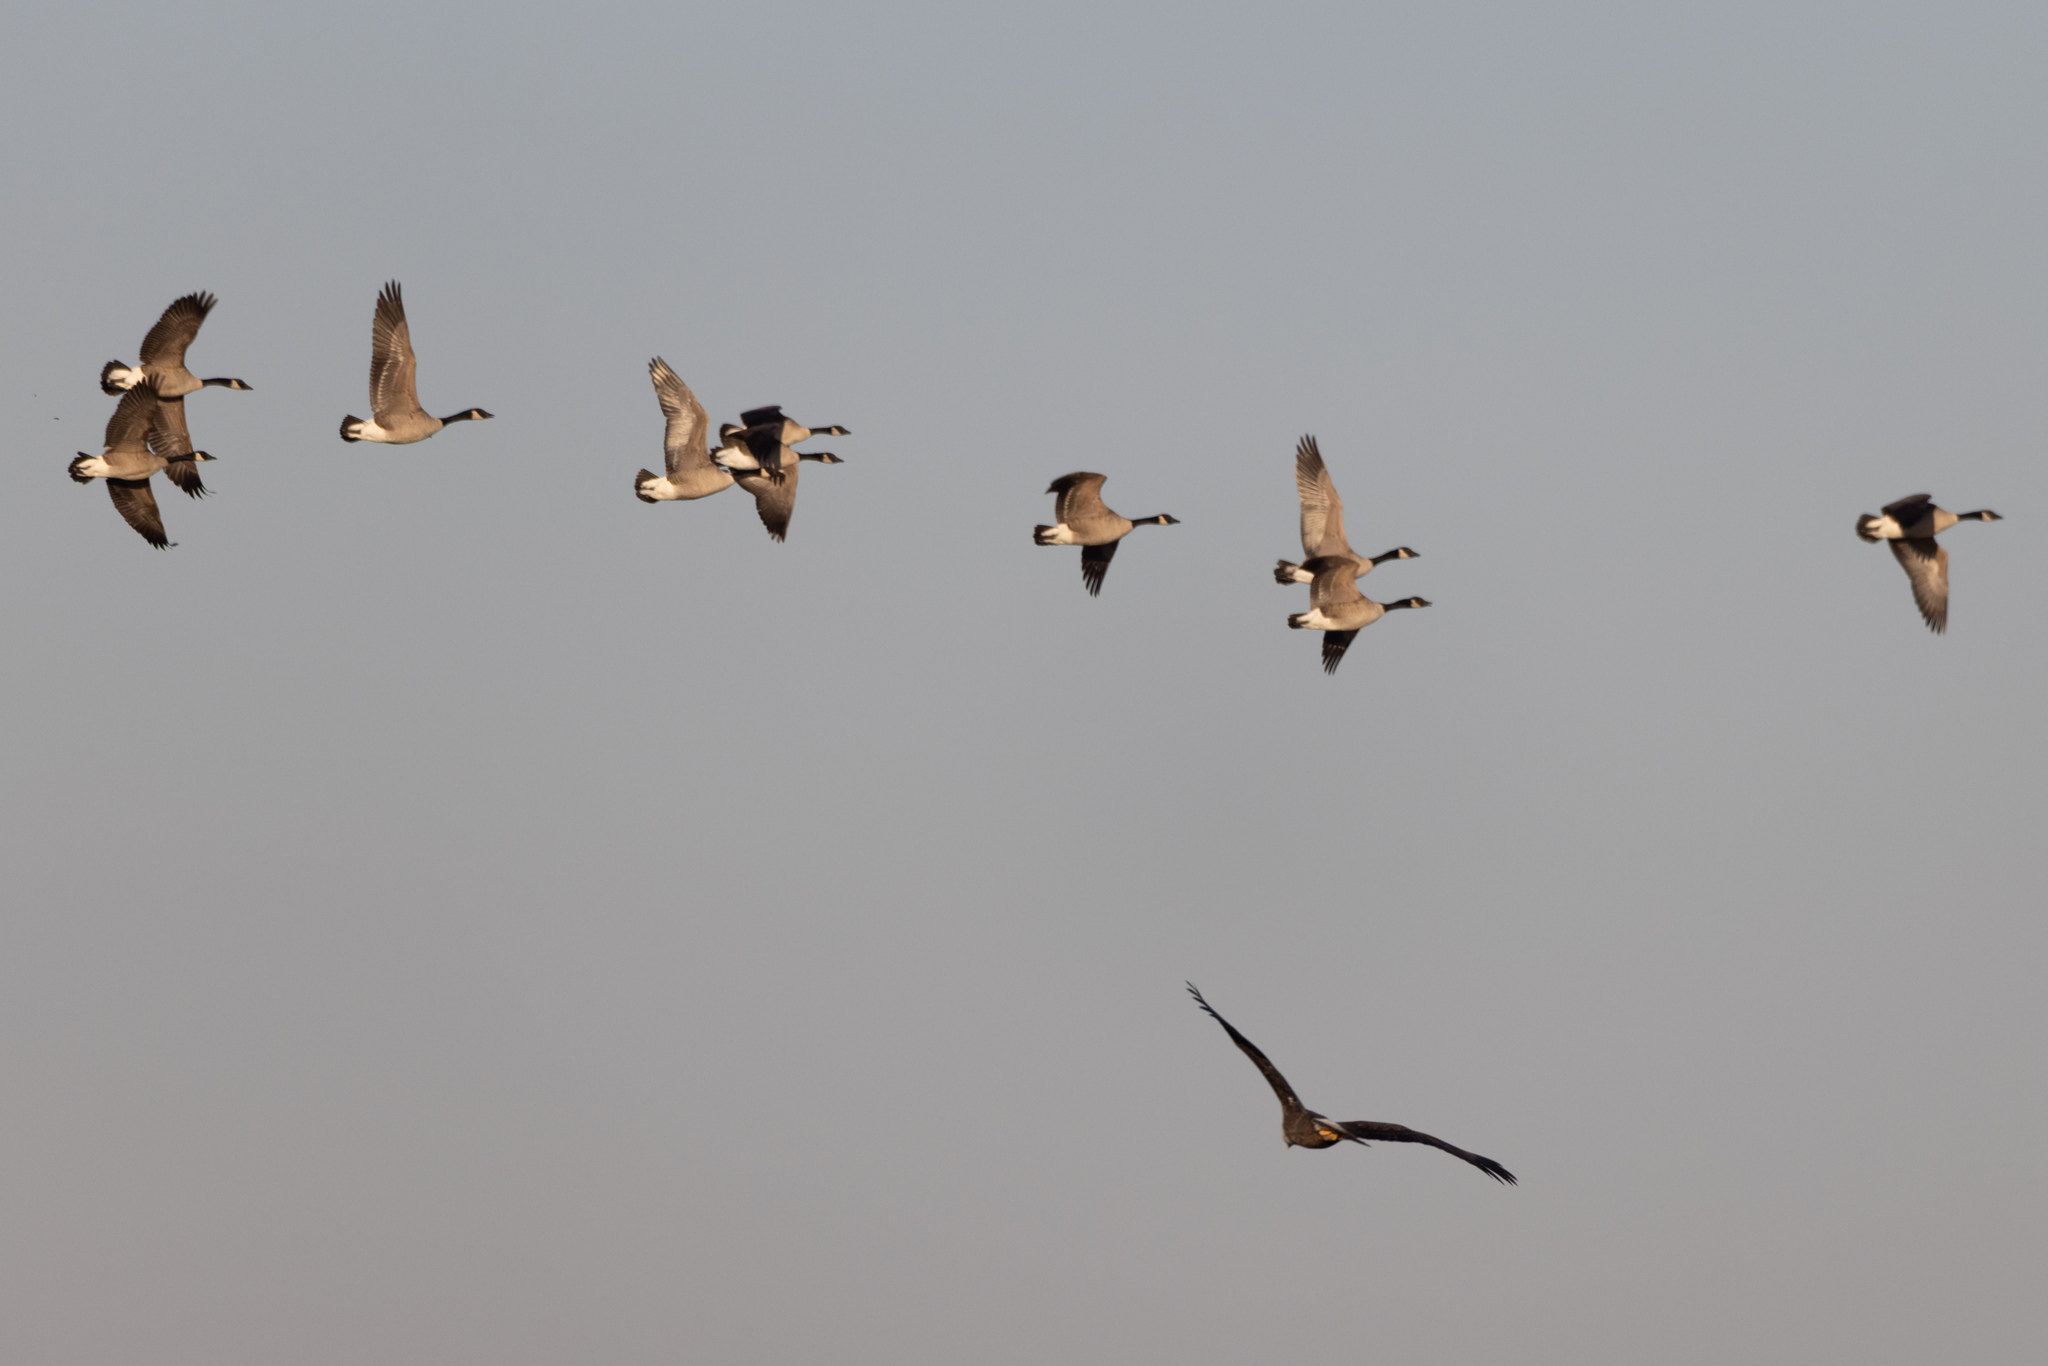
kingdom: Animalia
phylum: Chordata
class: Aves
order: Anseriformes
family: Anatidae
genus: Branta
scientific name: Branta canadensis
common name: Canada goose
